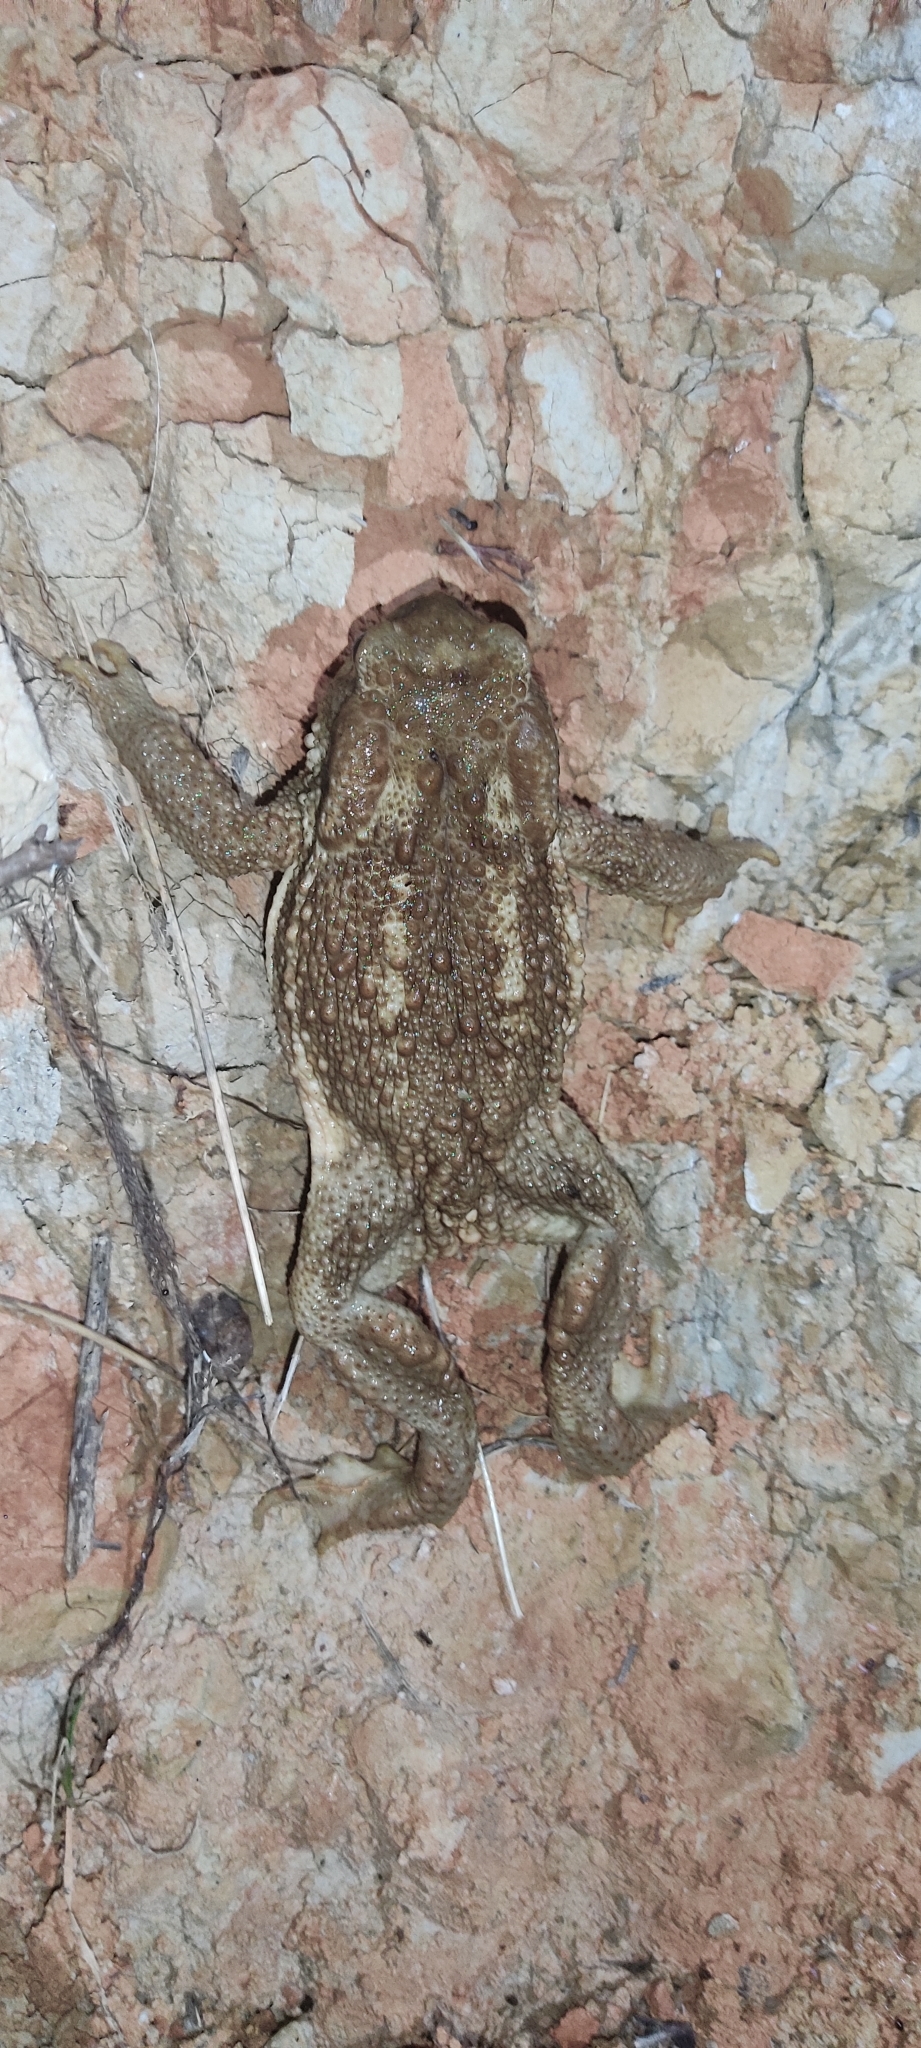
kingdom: Animalia
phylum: Chordata
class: Amphibia
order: Anura
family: Bufonidae
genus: Bufo
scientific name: Bufo spinosus
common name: Western common toad
